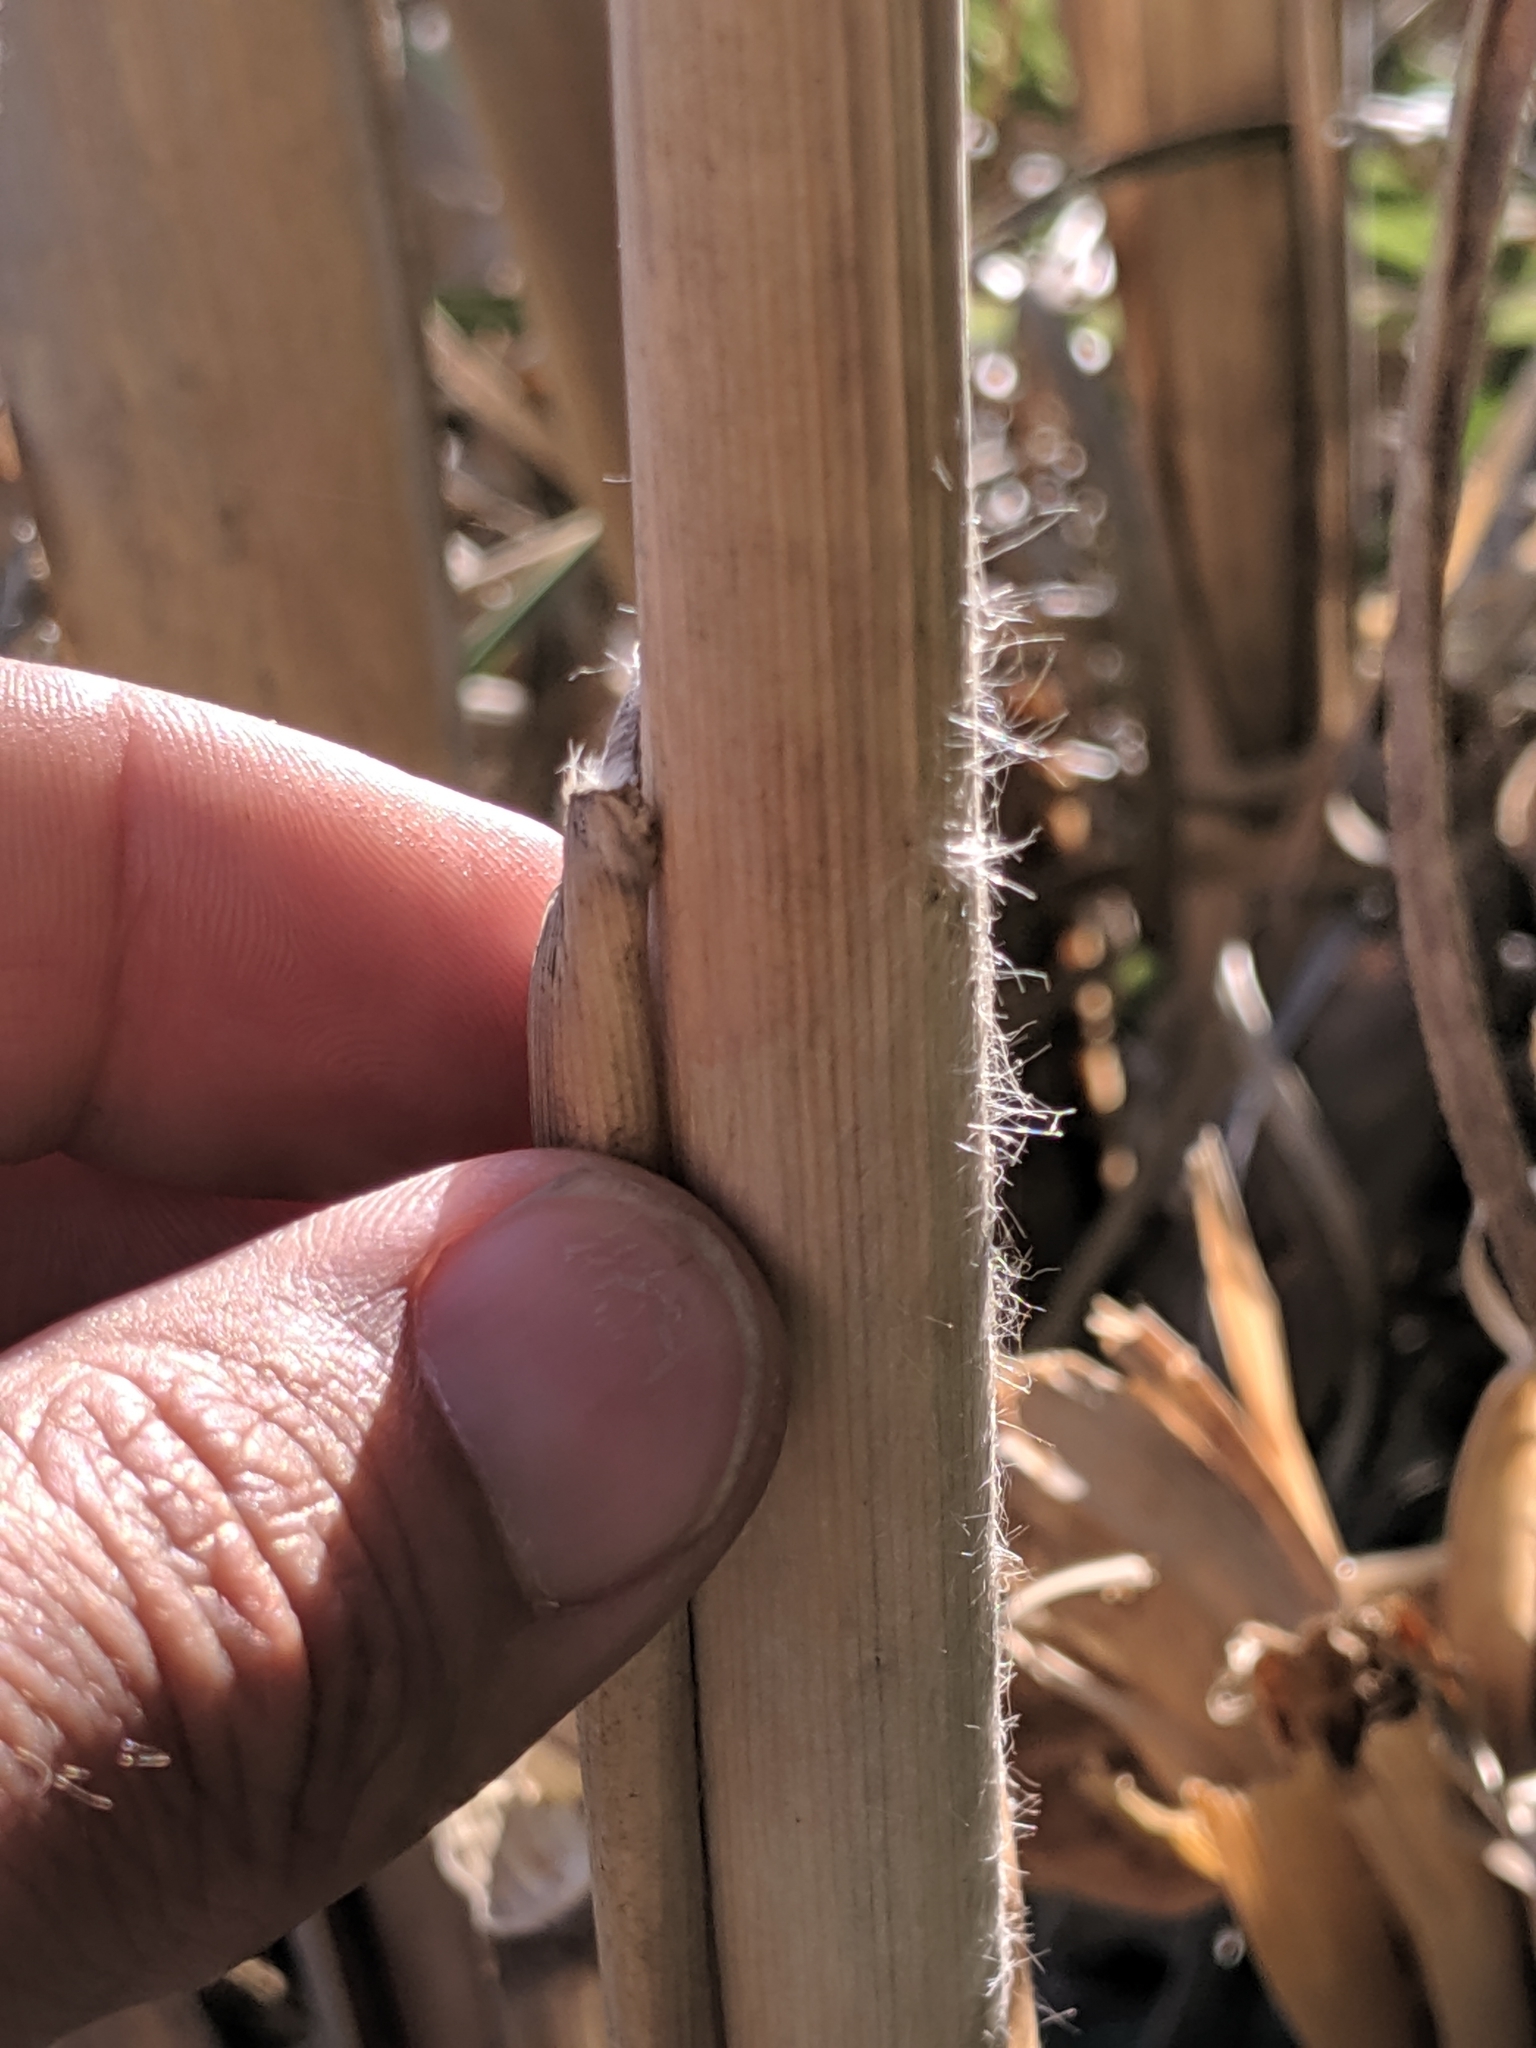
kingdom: Plantae
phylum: Tracheophyta
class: Liliopsida
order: Poales
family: Poaceae
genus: Cortaderia
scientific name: Cortaderia jubata
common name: Purple pampas grass
